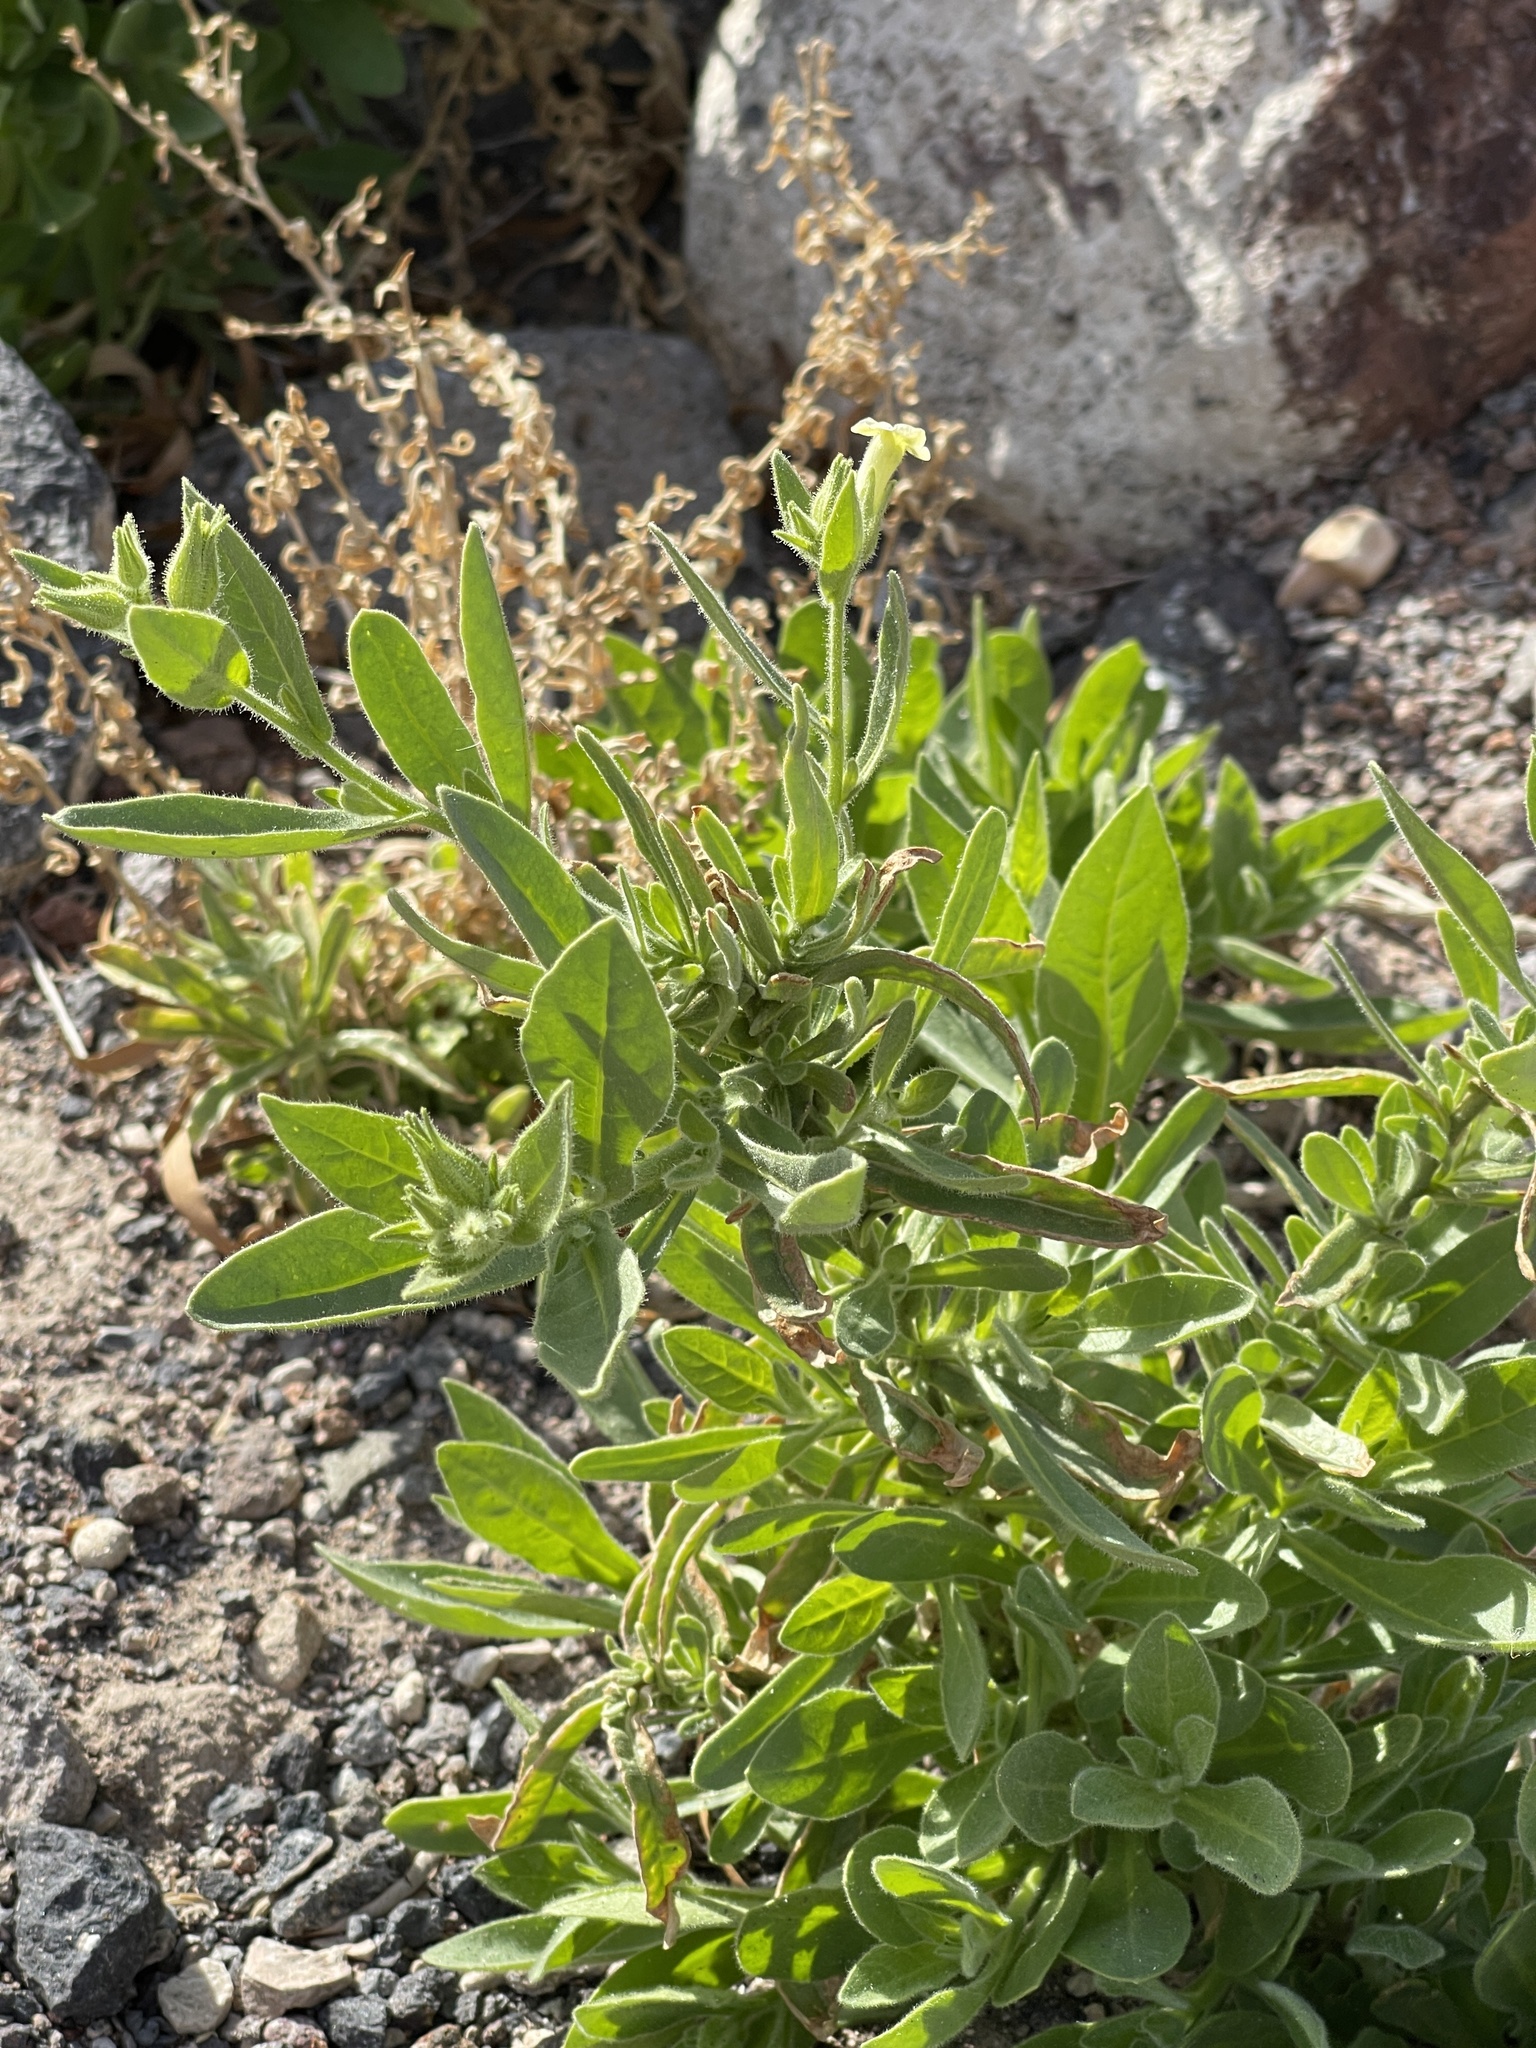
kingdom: Plantae
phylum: Tracheophyta
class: Magnoliopsida
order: Solanales
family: Solanaceae
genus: Nicotiana
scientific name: Nicotiana obtusifolia
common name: Desert tobacco
